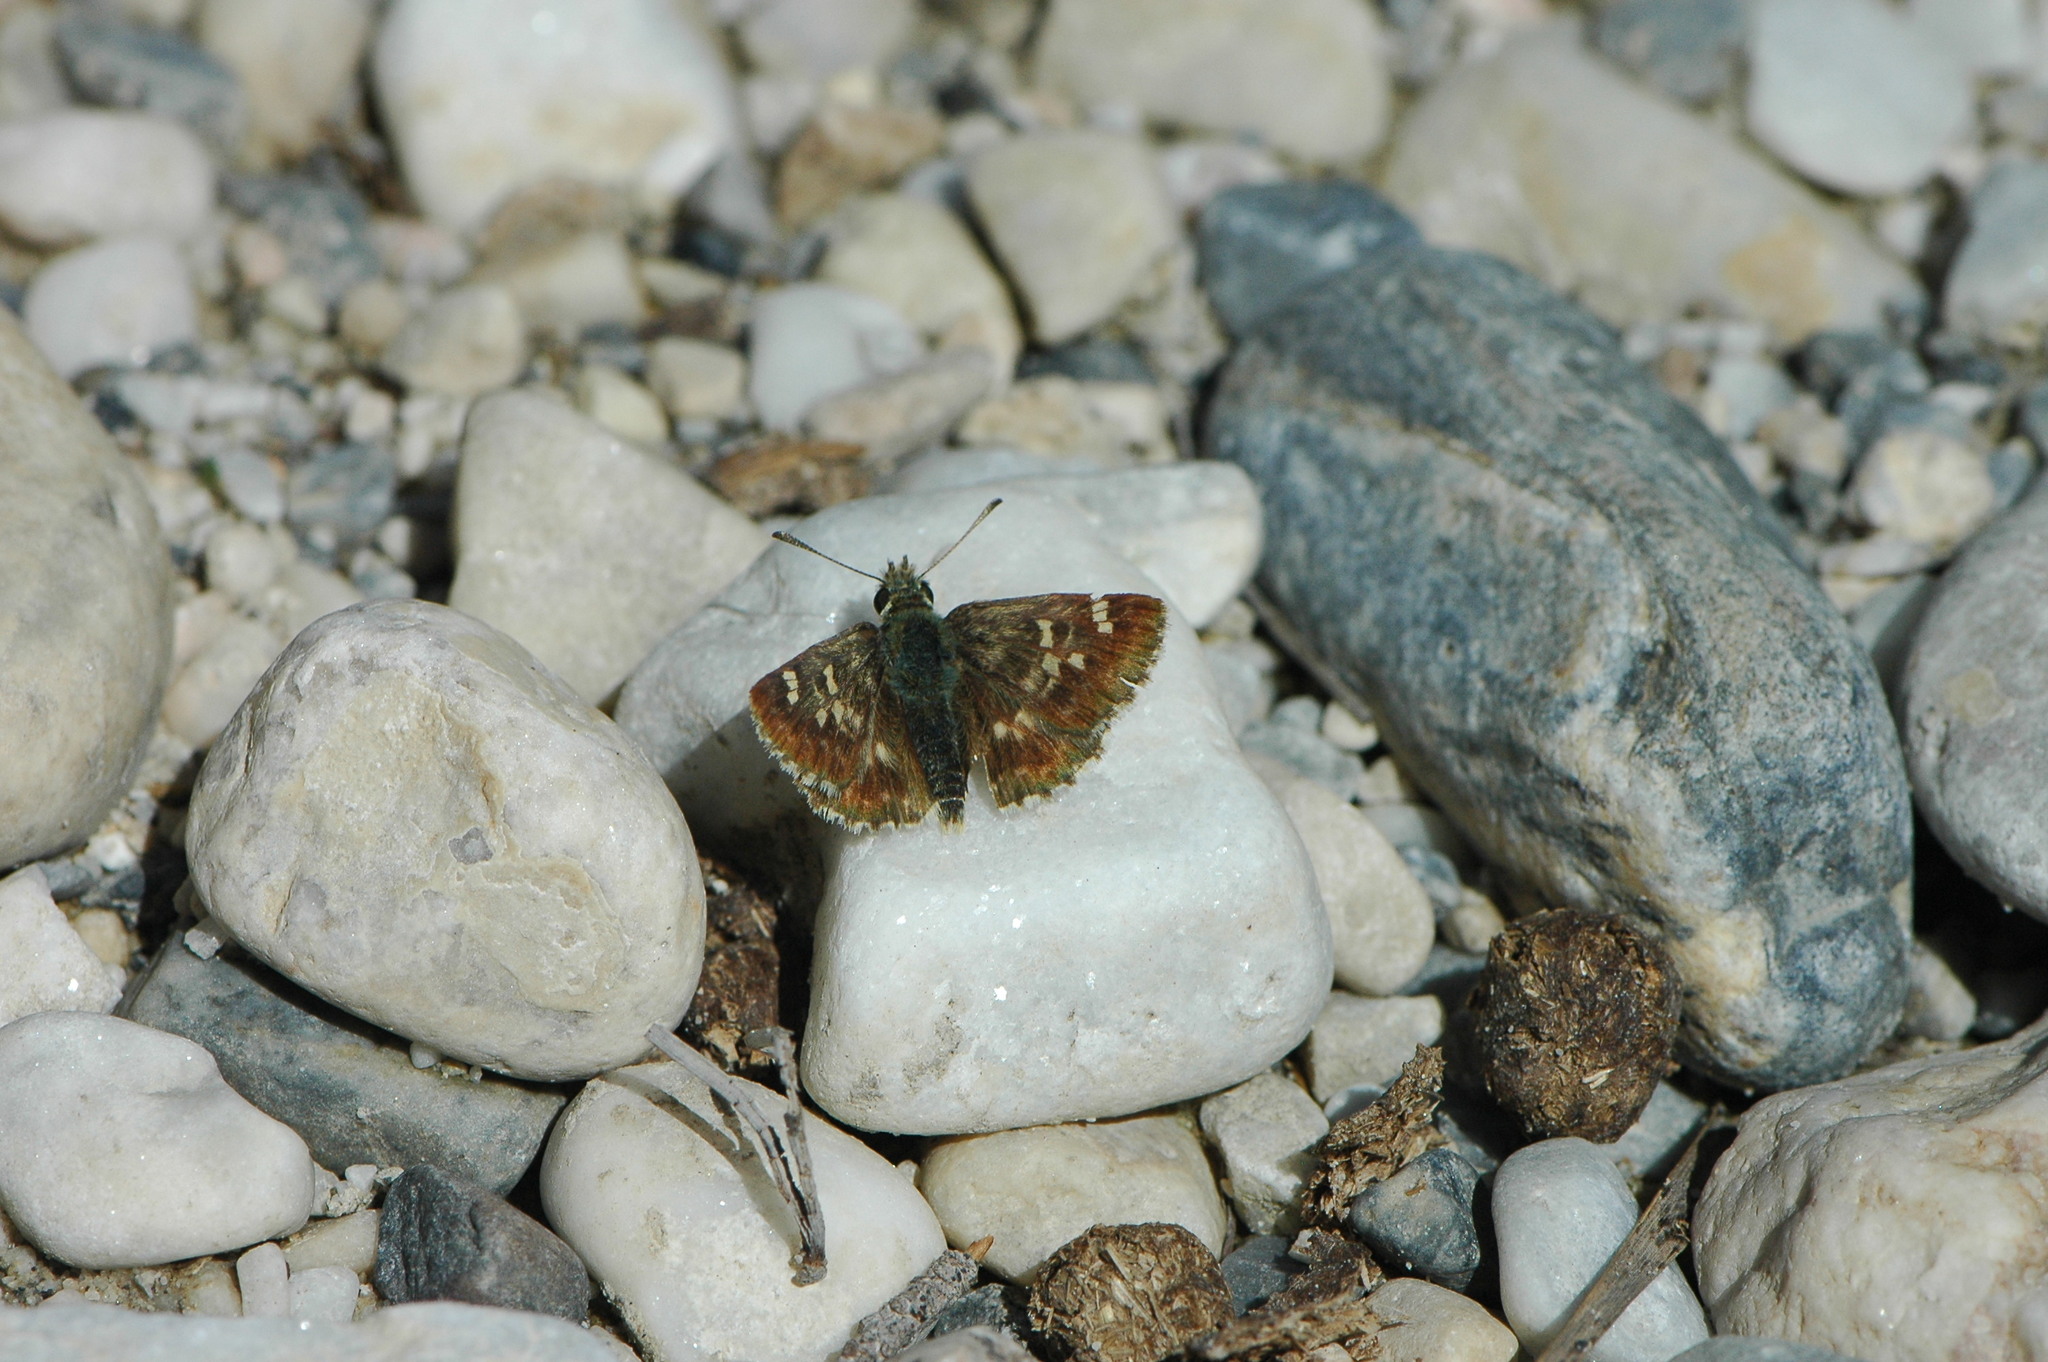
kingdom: Animalia
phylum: Arthropoda
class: Insecta
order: Lepidoptera
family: Hesperiidae
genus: Syrichtus
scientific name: Syrichtus Muschampia proto
